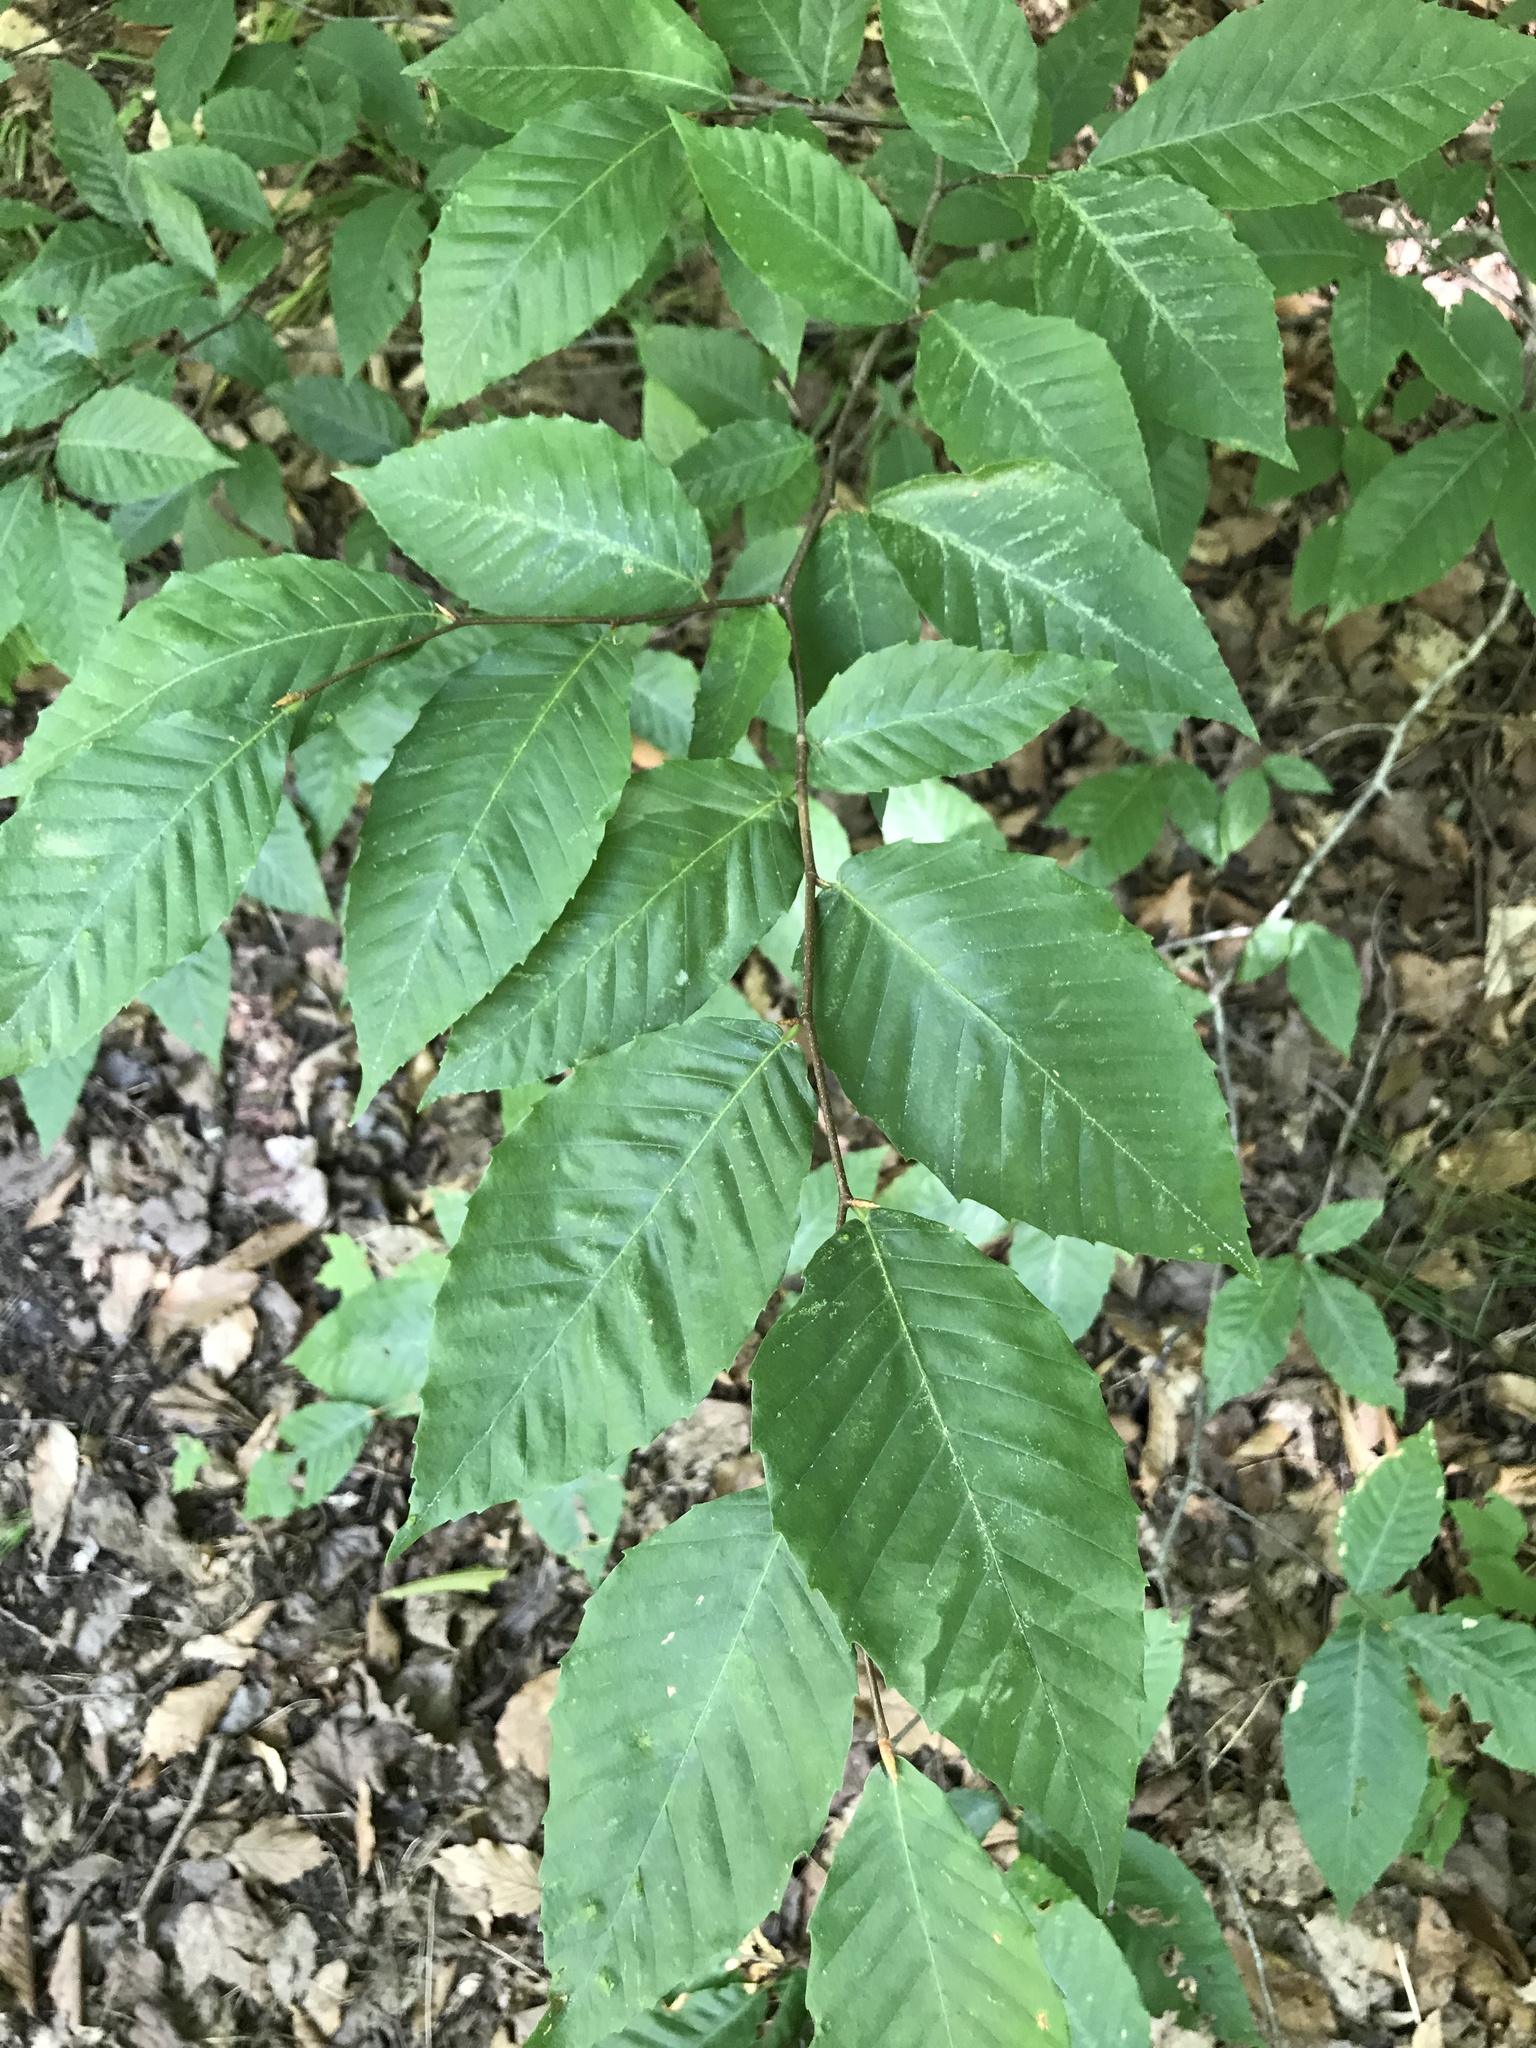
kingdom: Plantae
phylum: Tracheophyta
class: Magnoliopsida
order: Fagales
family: Fagaceae
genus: Fagus
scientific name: Fagus grandifolia
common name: American beech
